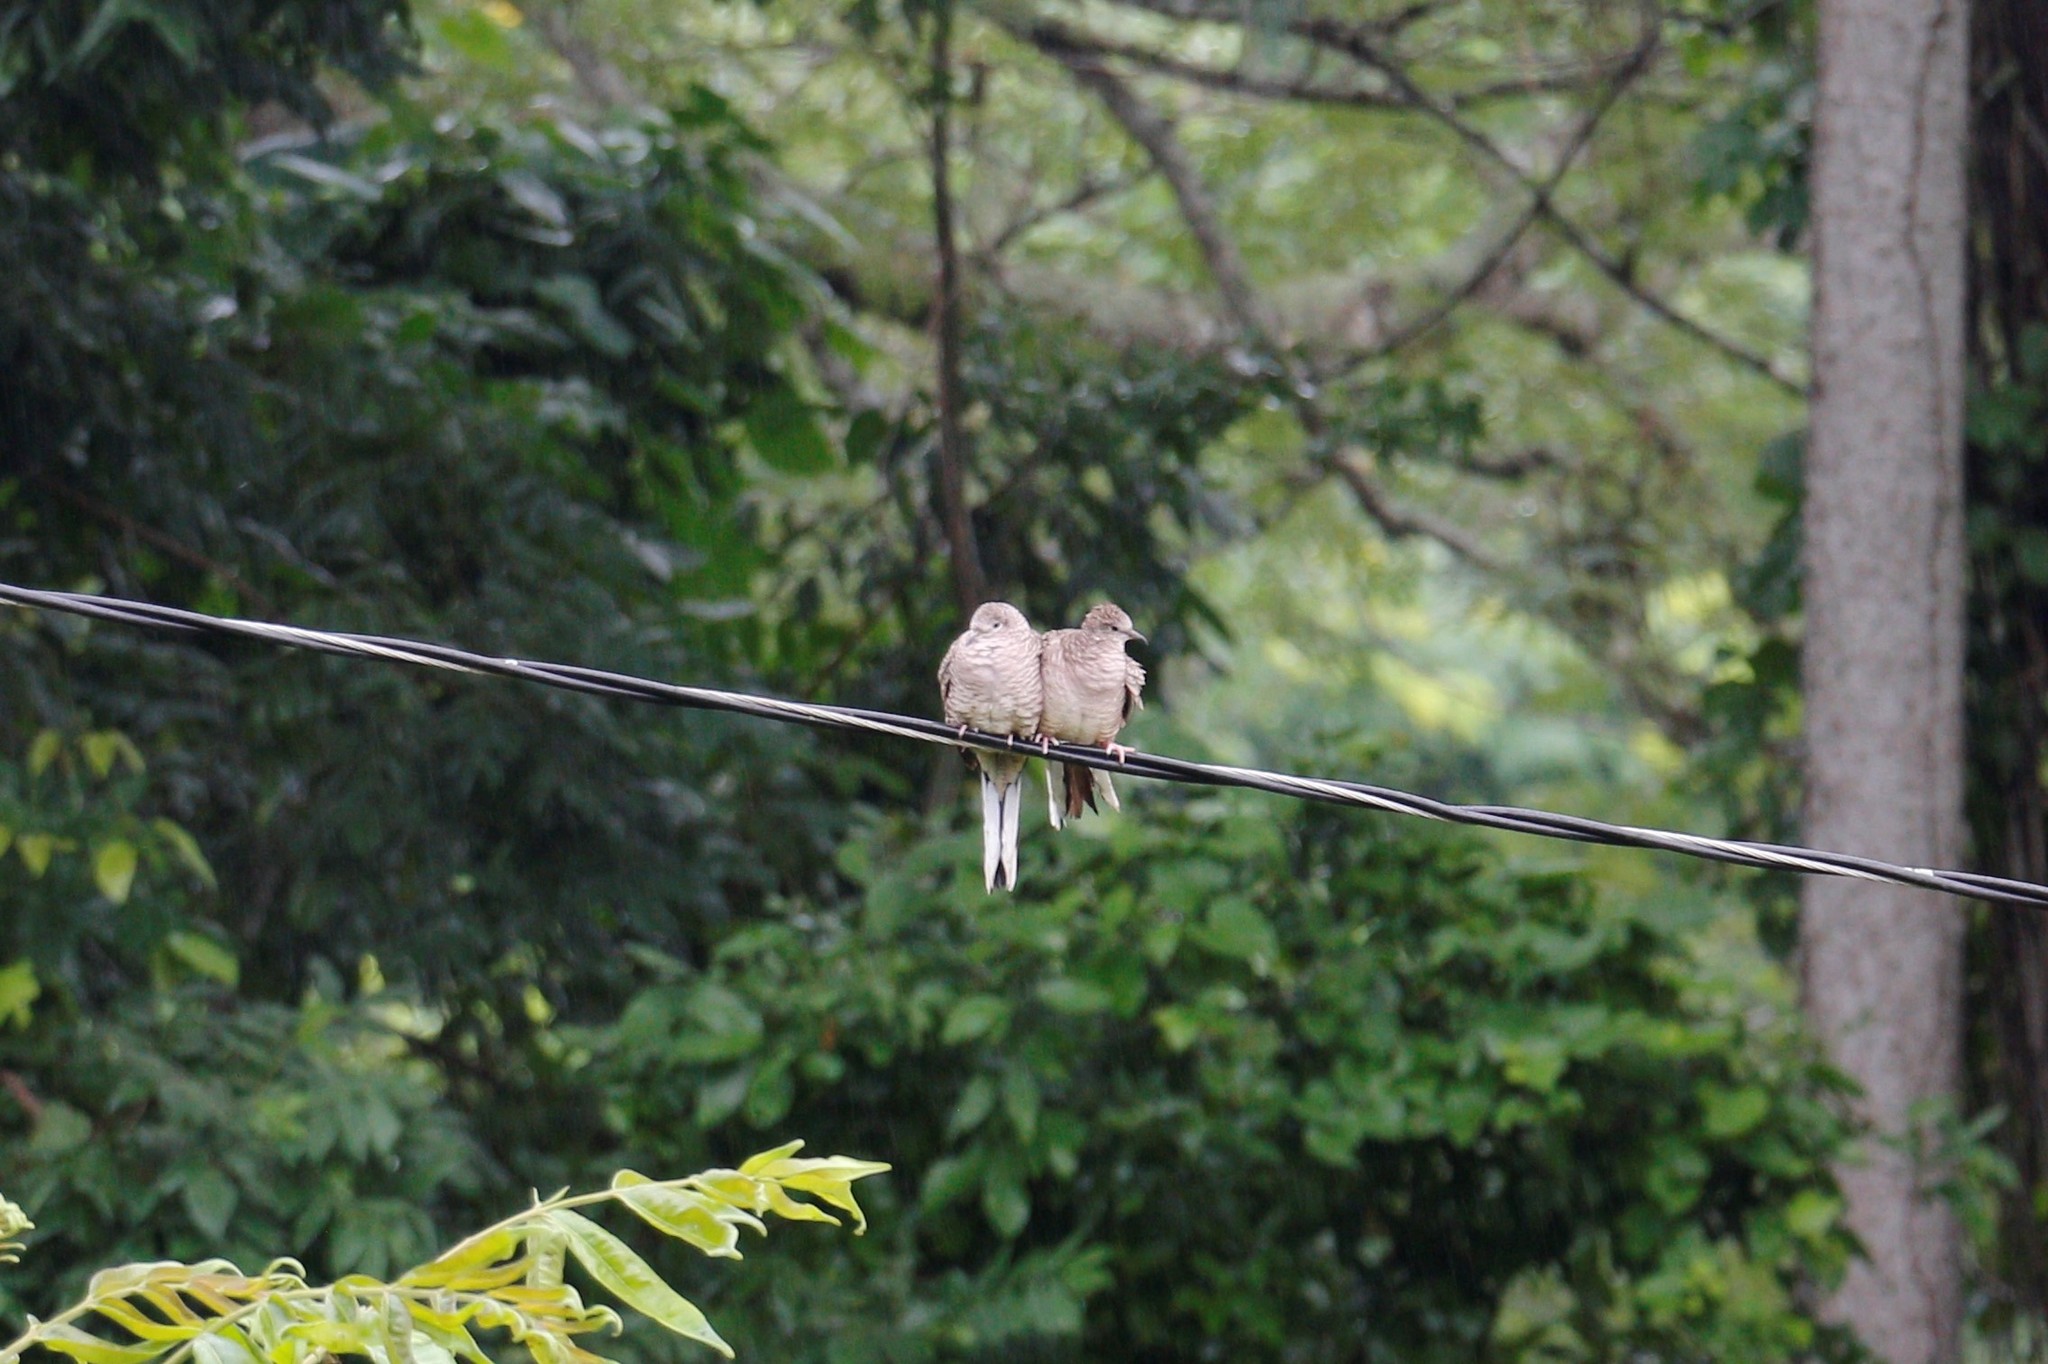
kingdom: Animalia
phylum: Chordata
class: Aves
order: Columbiformes
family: Columbidae
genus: Columbina
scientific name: Columbina inca
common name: Inca dove
